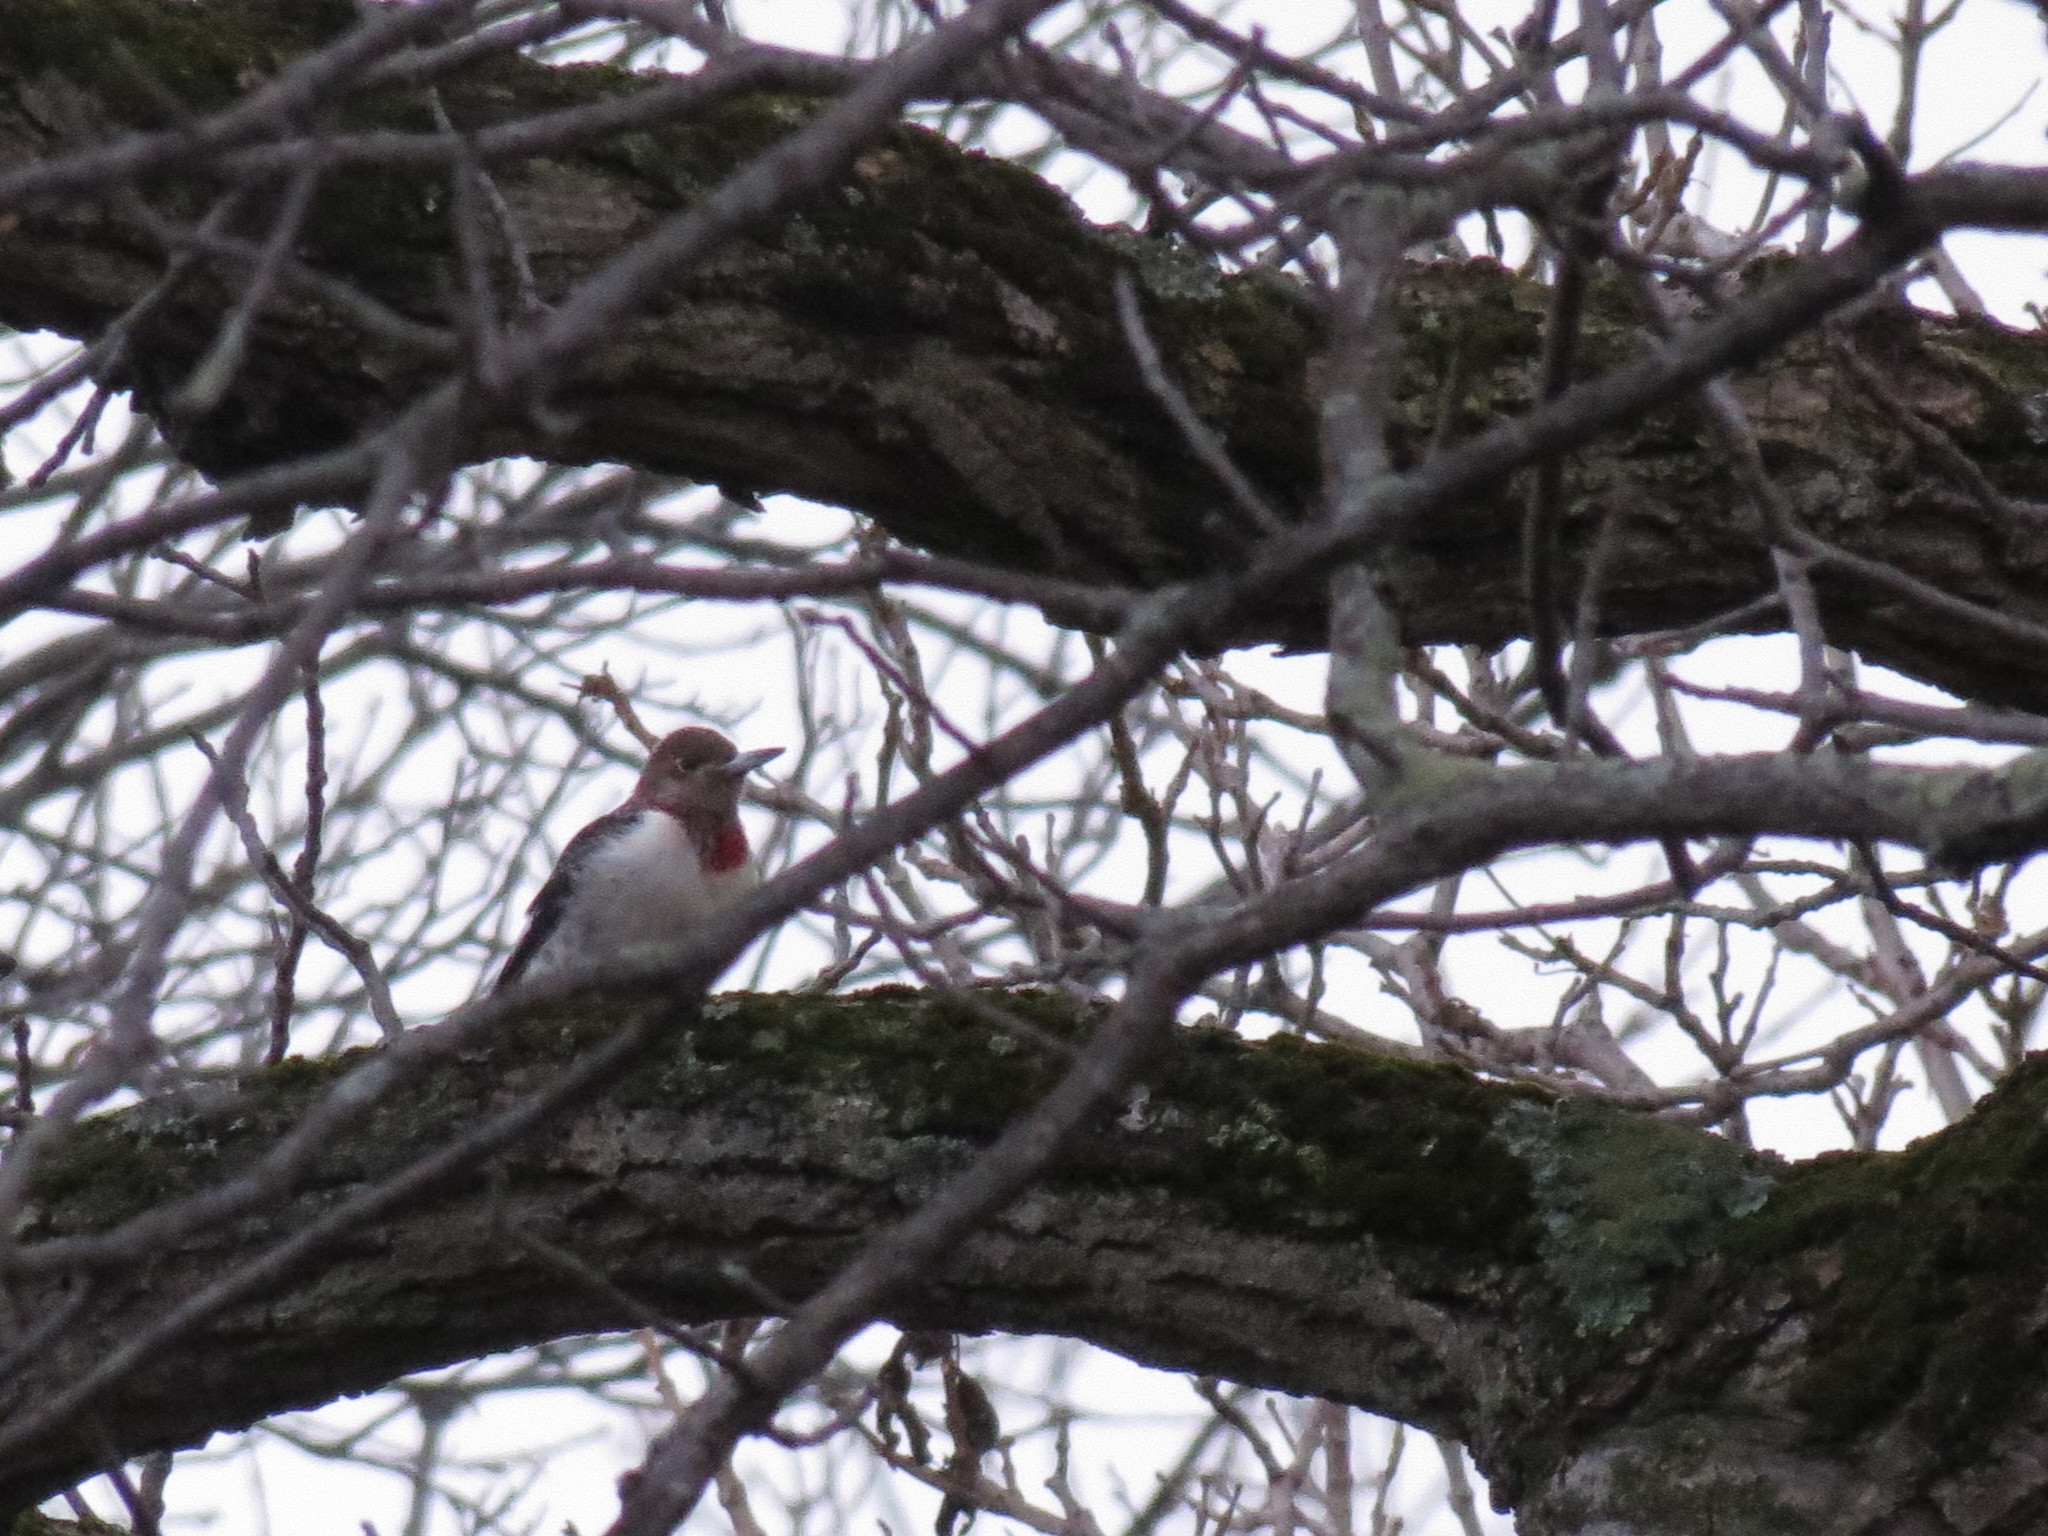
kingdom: Animalia
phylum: Chordata
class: Aves
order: Piciformes
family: Picidae
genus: Melanerpes
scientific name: Melanerpes erythrocephalus
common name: Red-headed woodpecker
